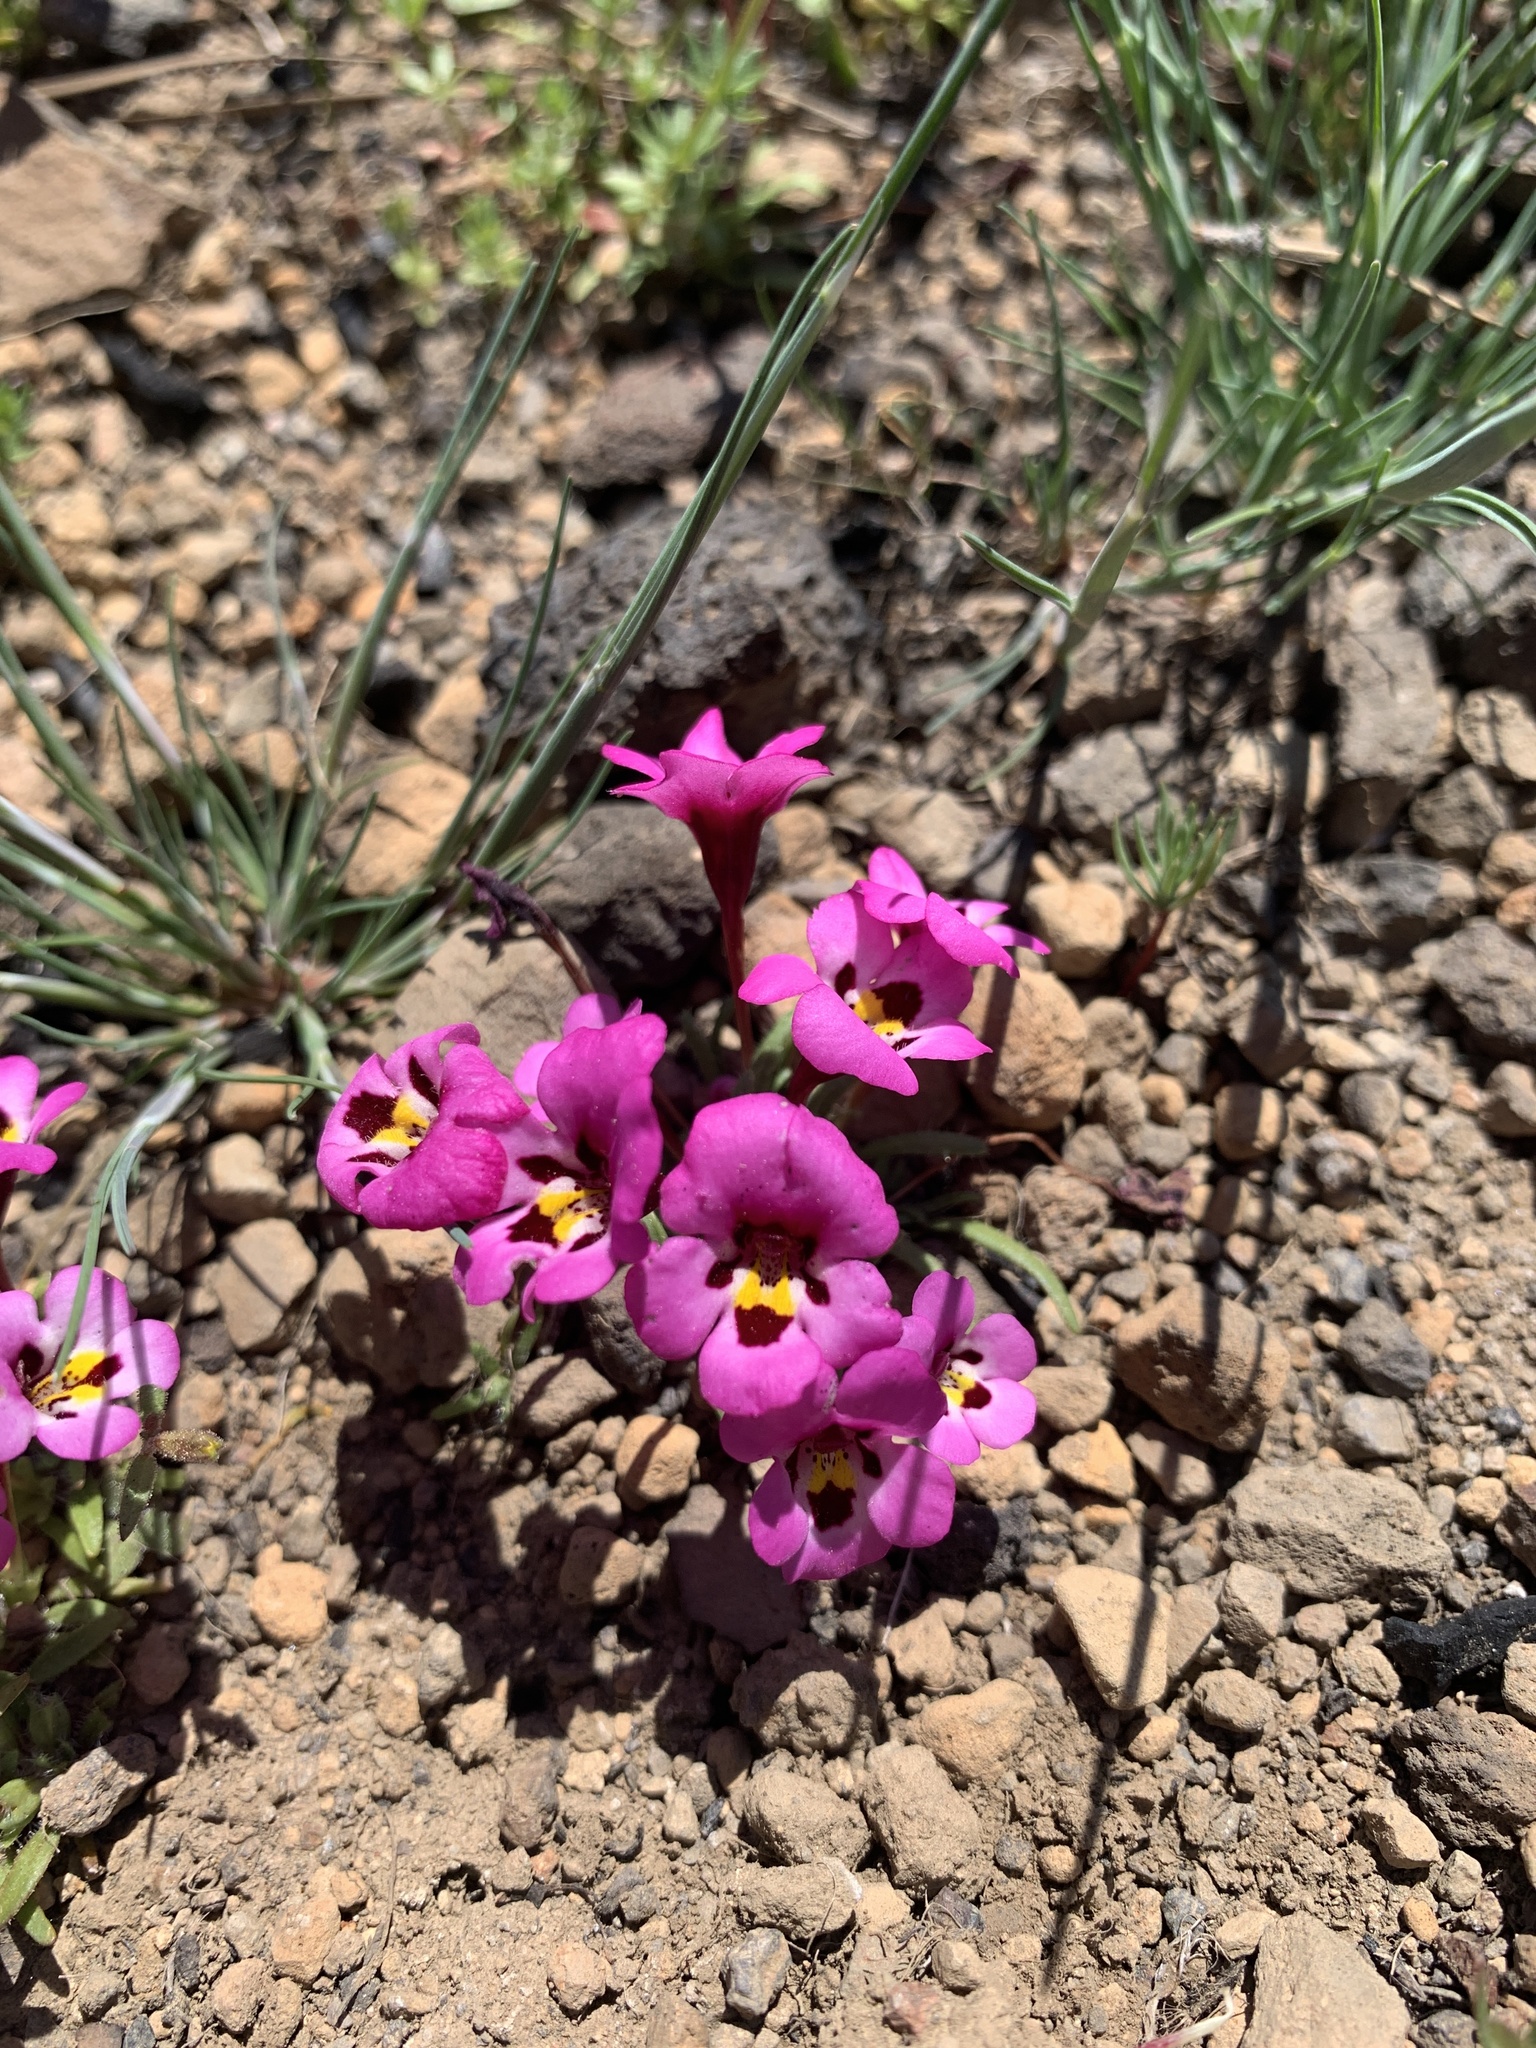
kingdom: Plantae
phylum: Tracheophyta
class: Magnoliopsida
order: Lamiales
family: Phrymaceae
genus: Diplacus
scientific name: Diplacus angustatus
